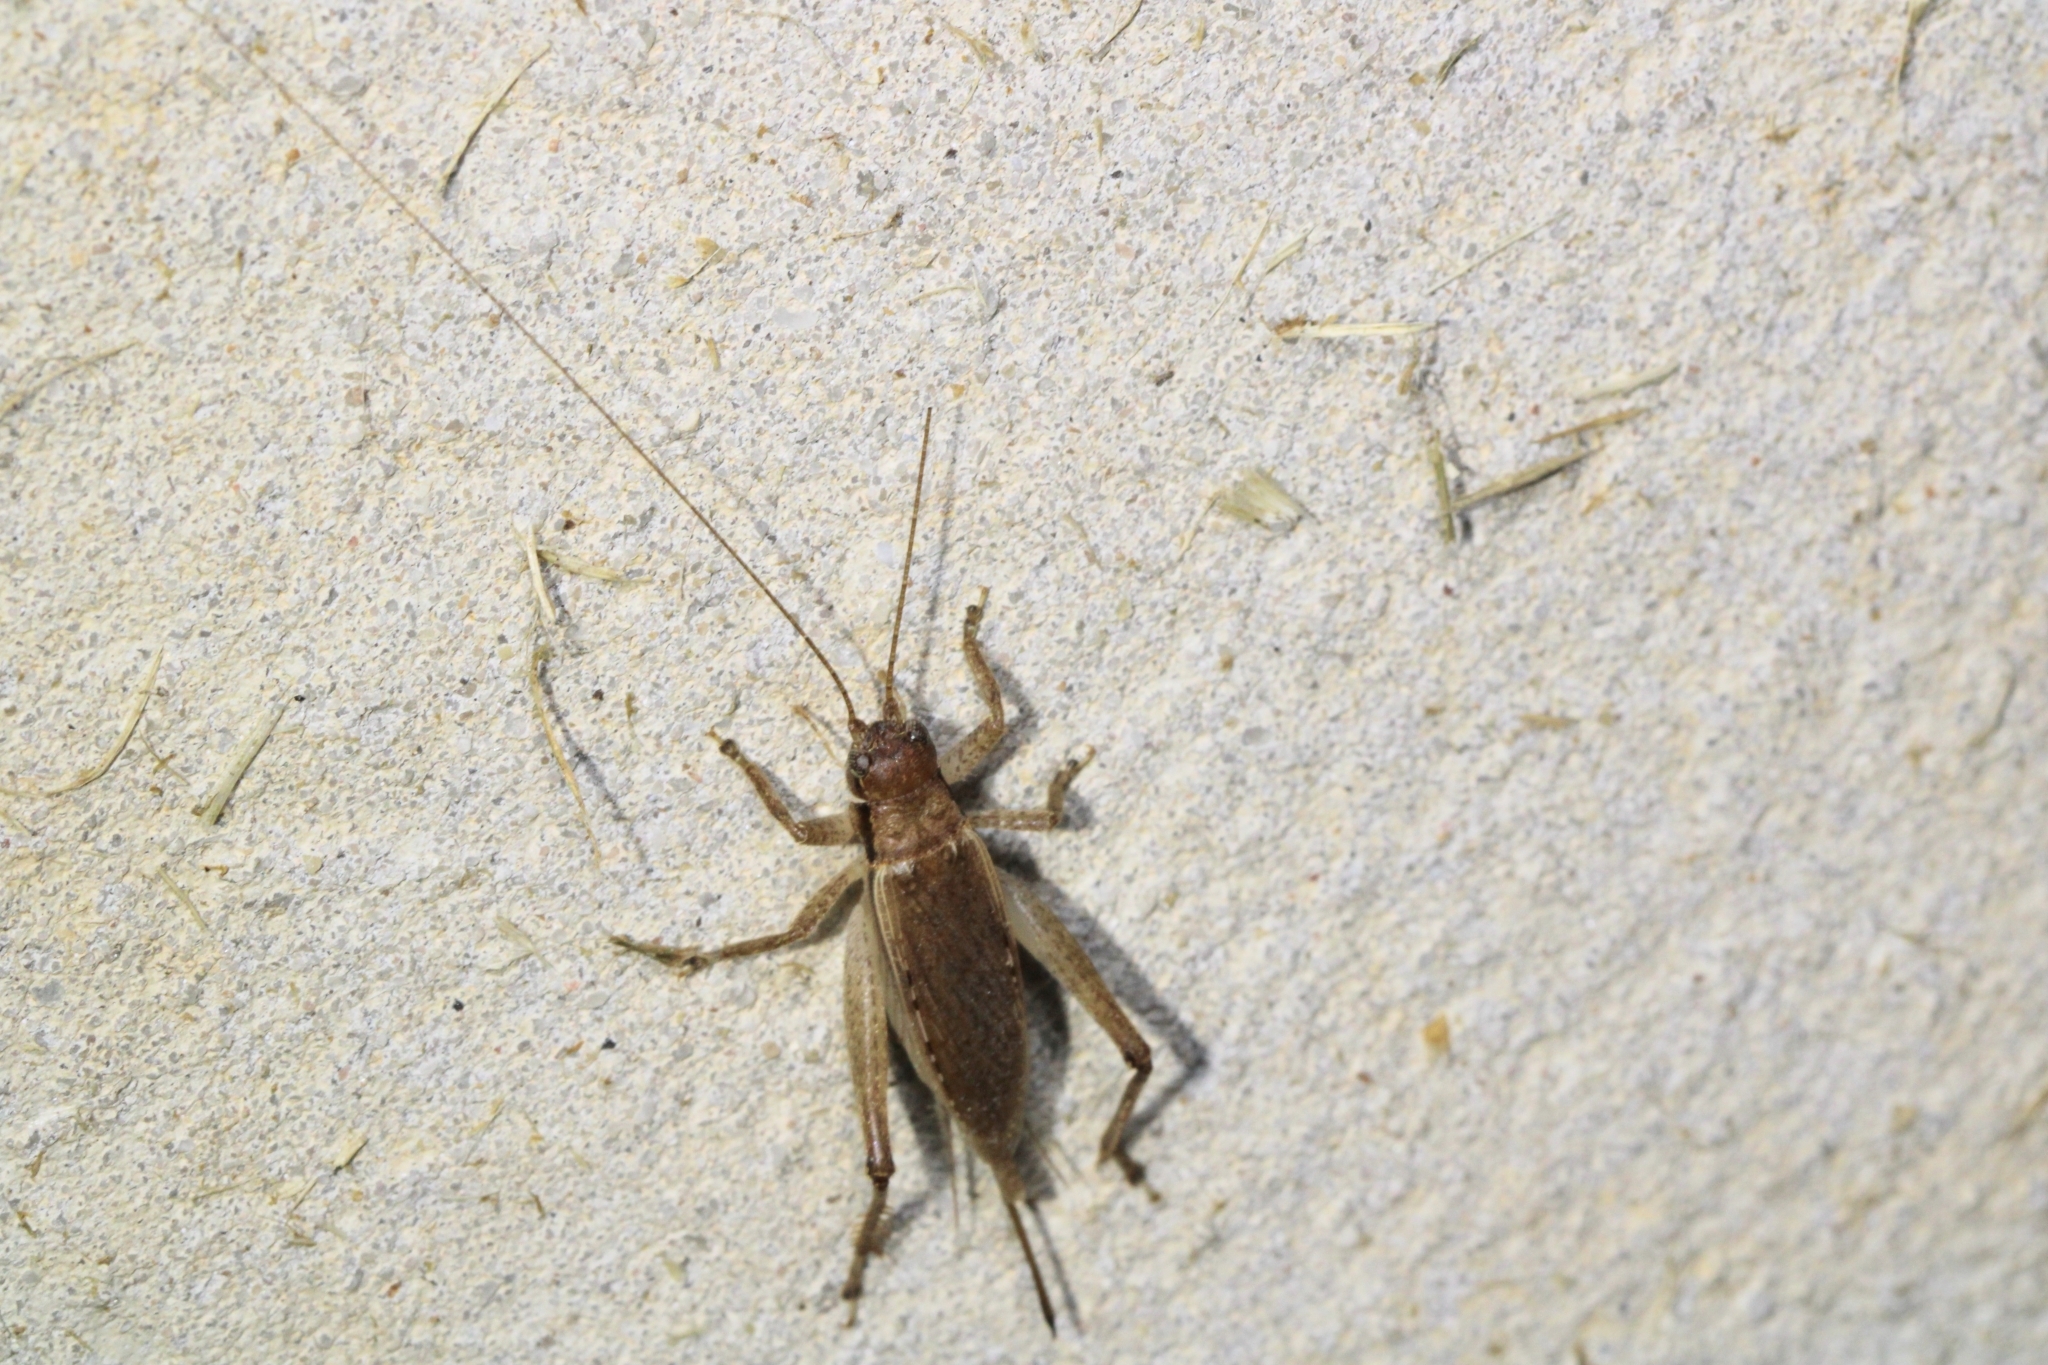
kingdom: Animalia
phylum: Arthropoda
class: Insecta
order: Orthoptera
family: Gryllidae
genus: Hapithus
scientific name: Hapithus saltator
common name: Jumping bush cricket
